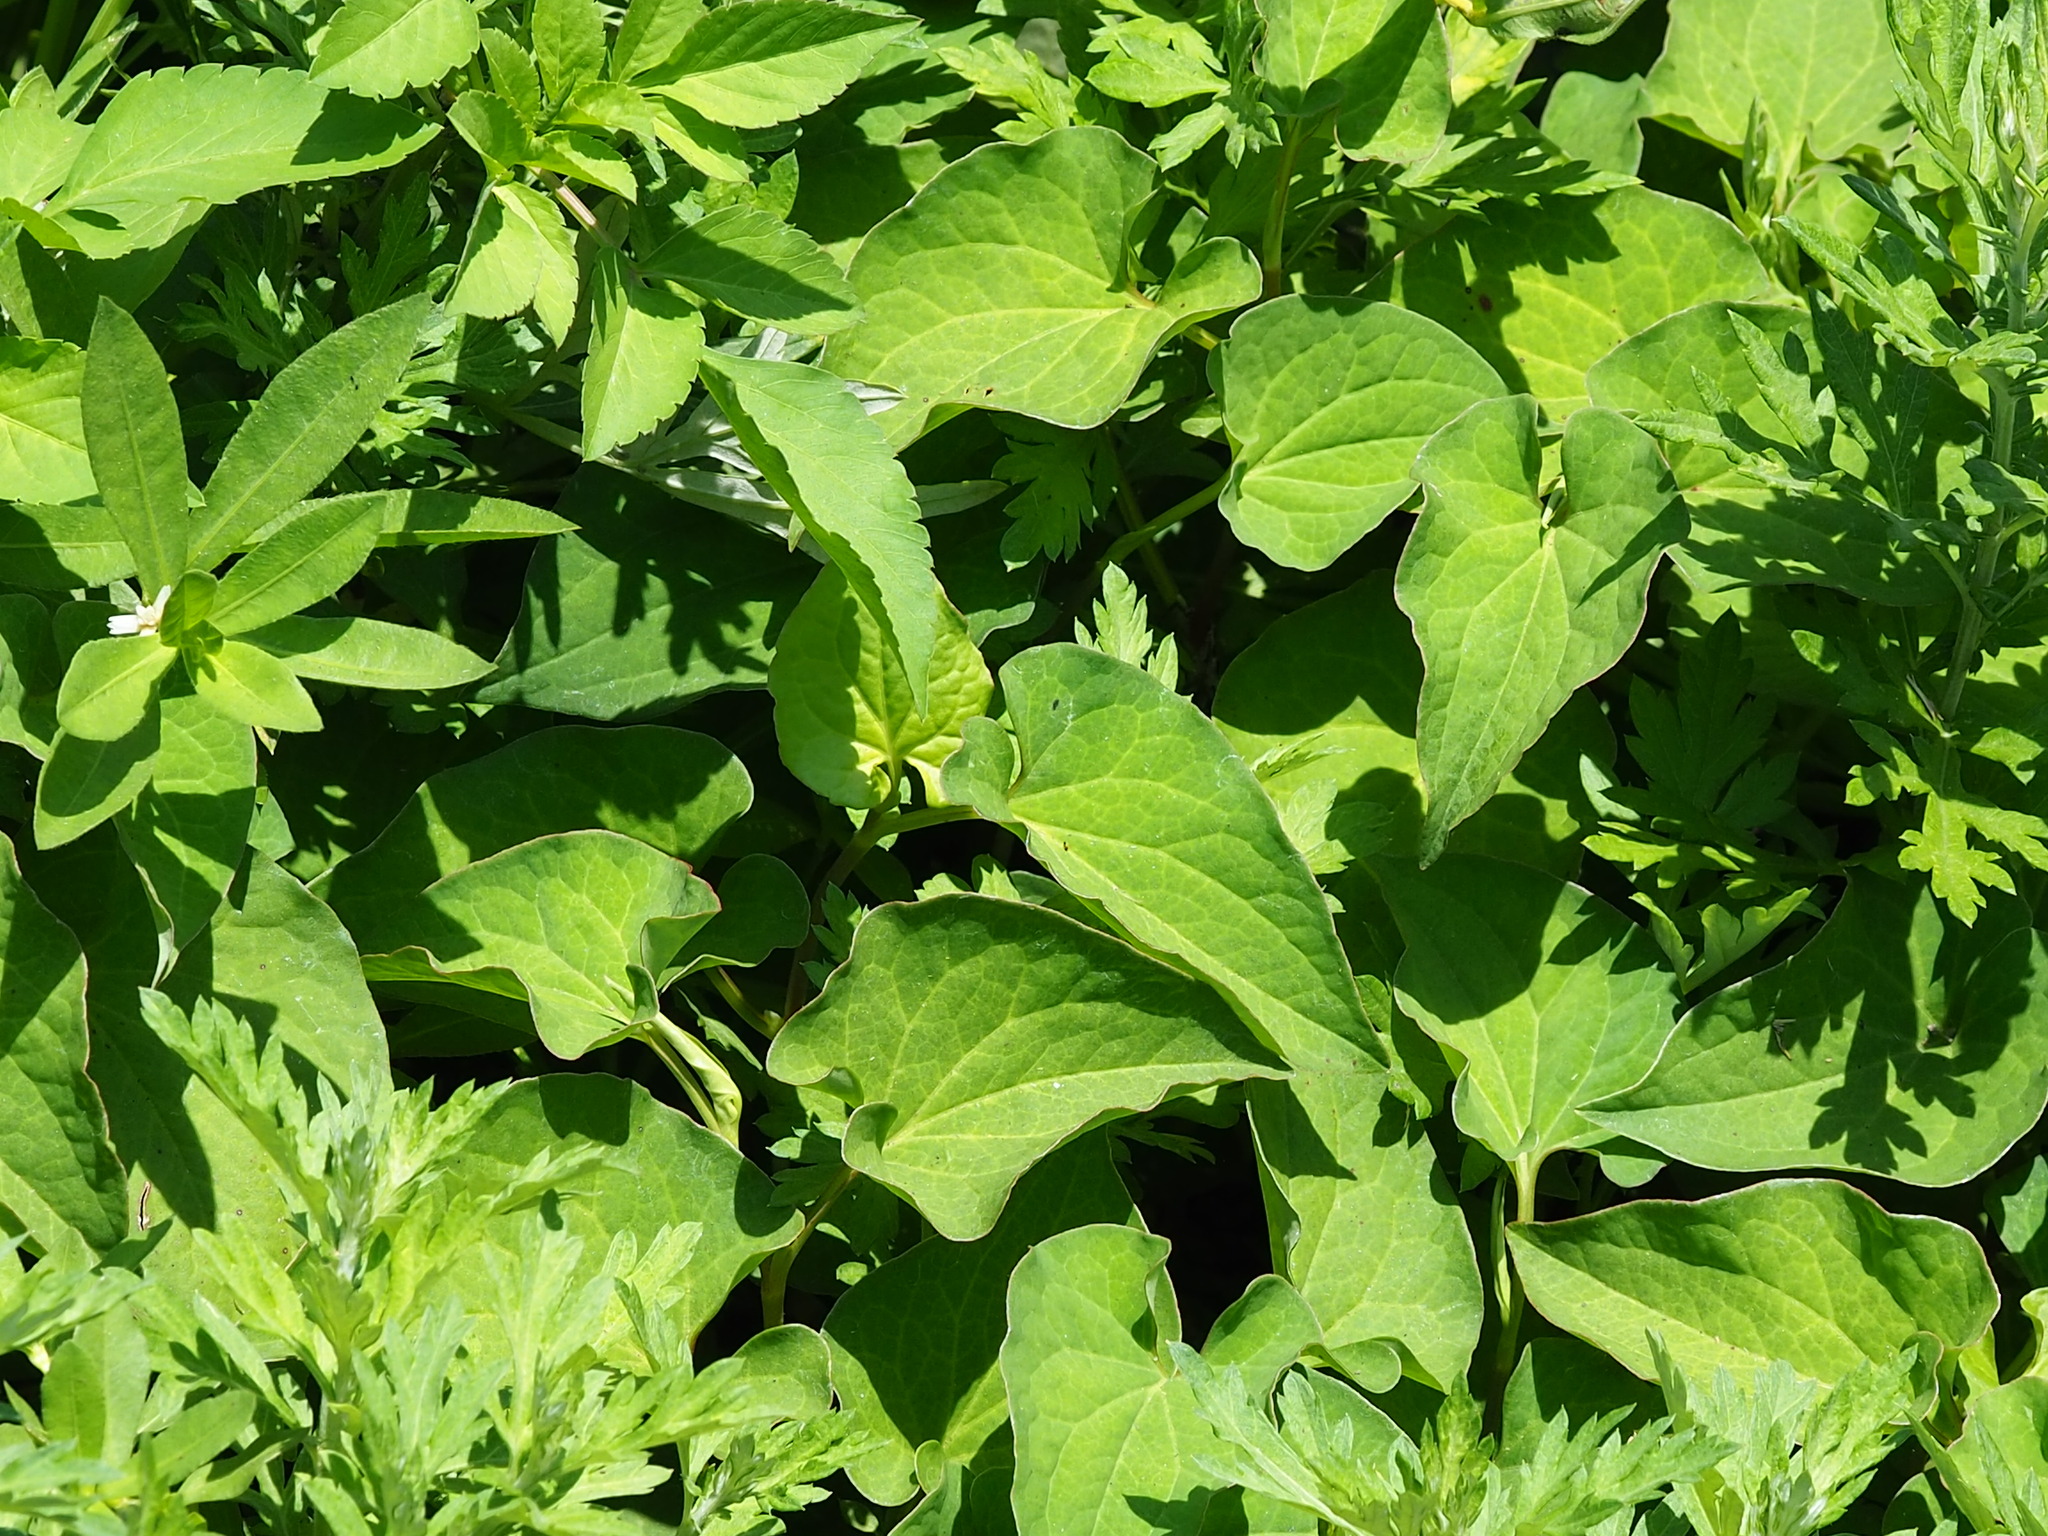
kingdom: Plantae
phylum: Tracheophyta
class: Magnoliopsida
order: Piperales
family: Saururaceae
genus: Houttuynia
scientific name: Houttuynia cordata
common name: Chameleon
